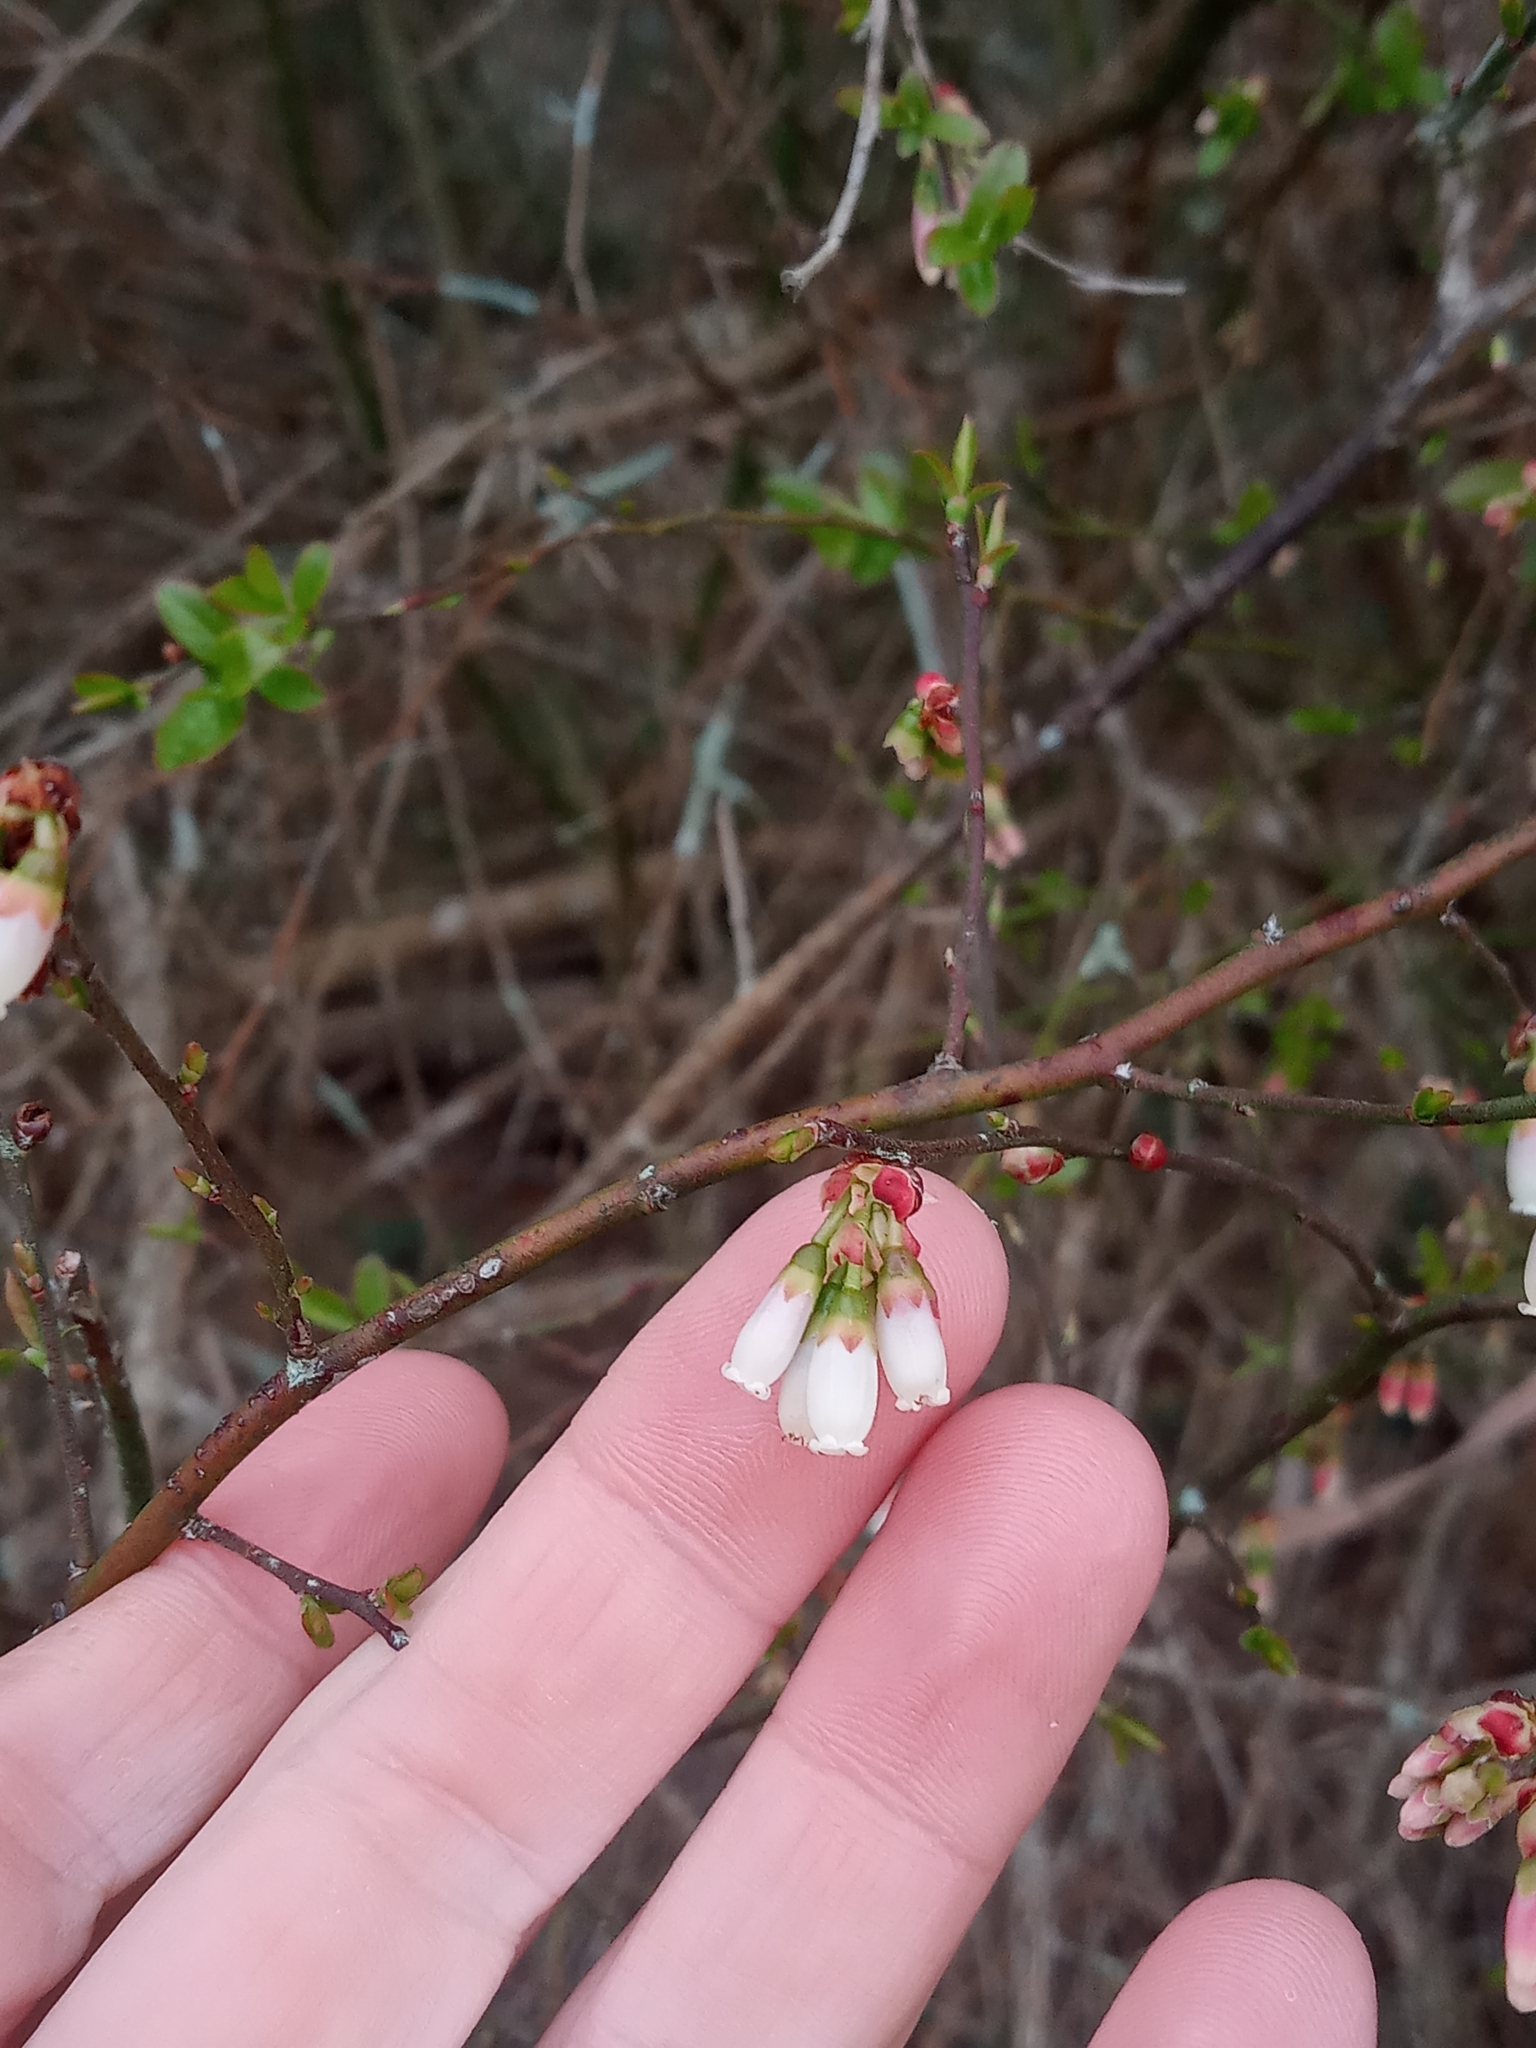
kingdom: Plantae
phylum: Tracheophyta
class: Magnoliopsida
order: Ericales
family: Ericaceae
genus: Vaccinium
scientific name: Vaccinium corymbosum
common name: Blueberry
